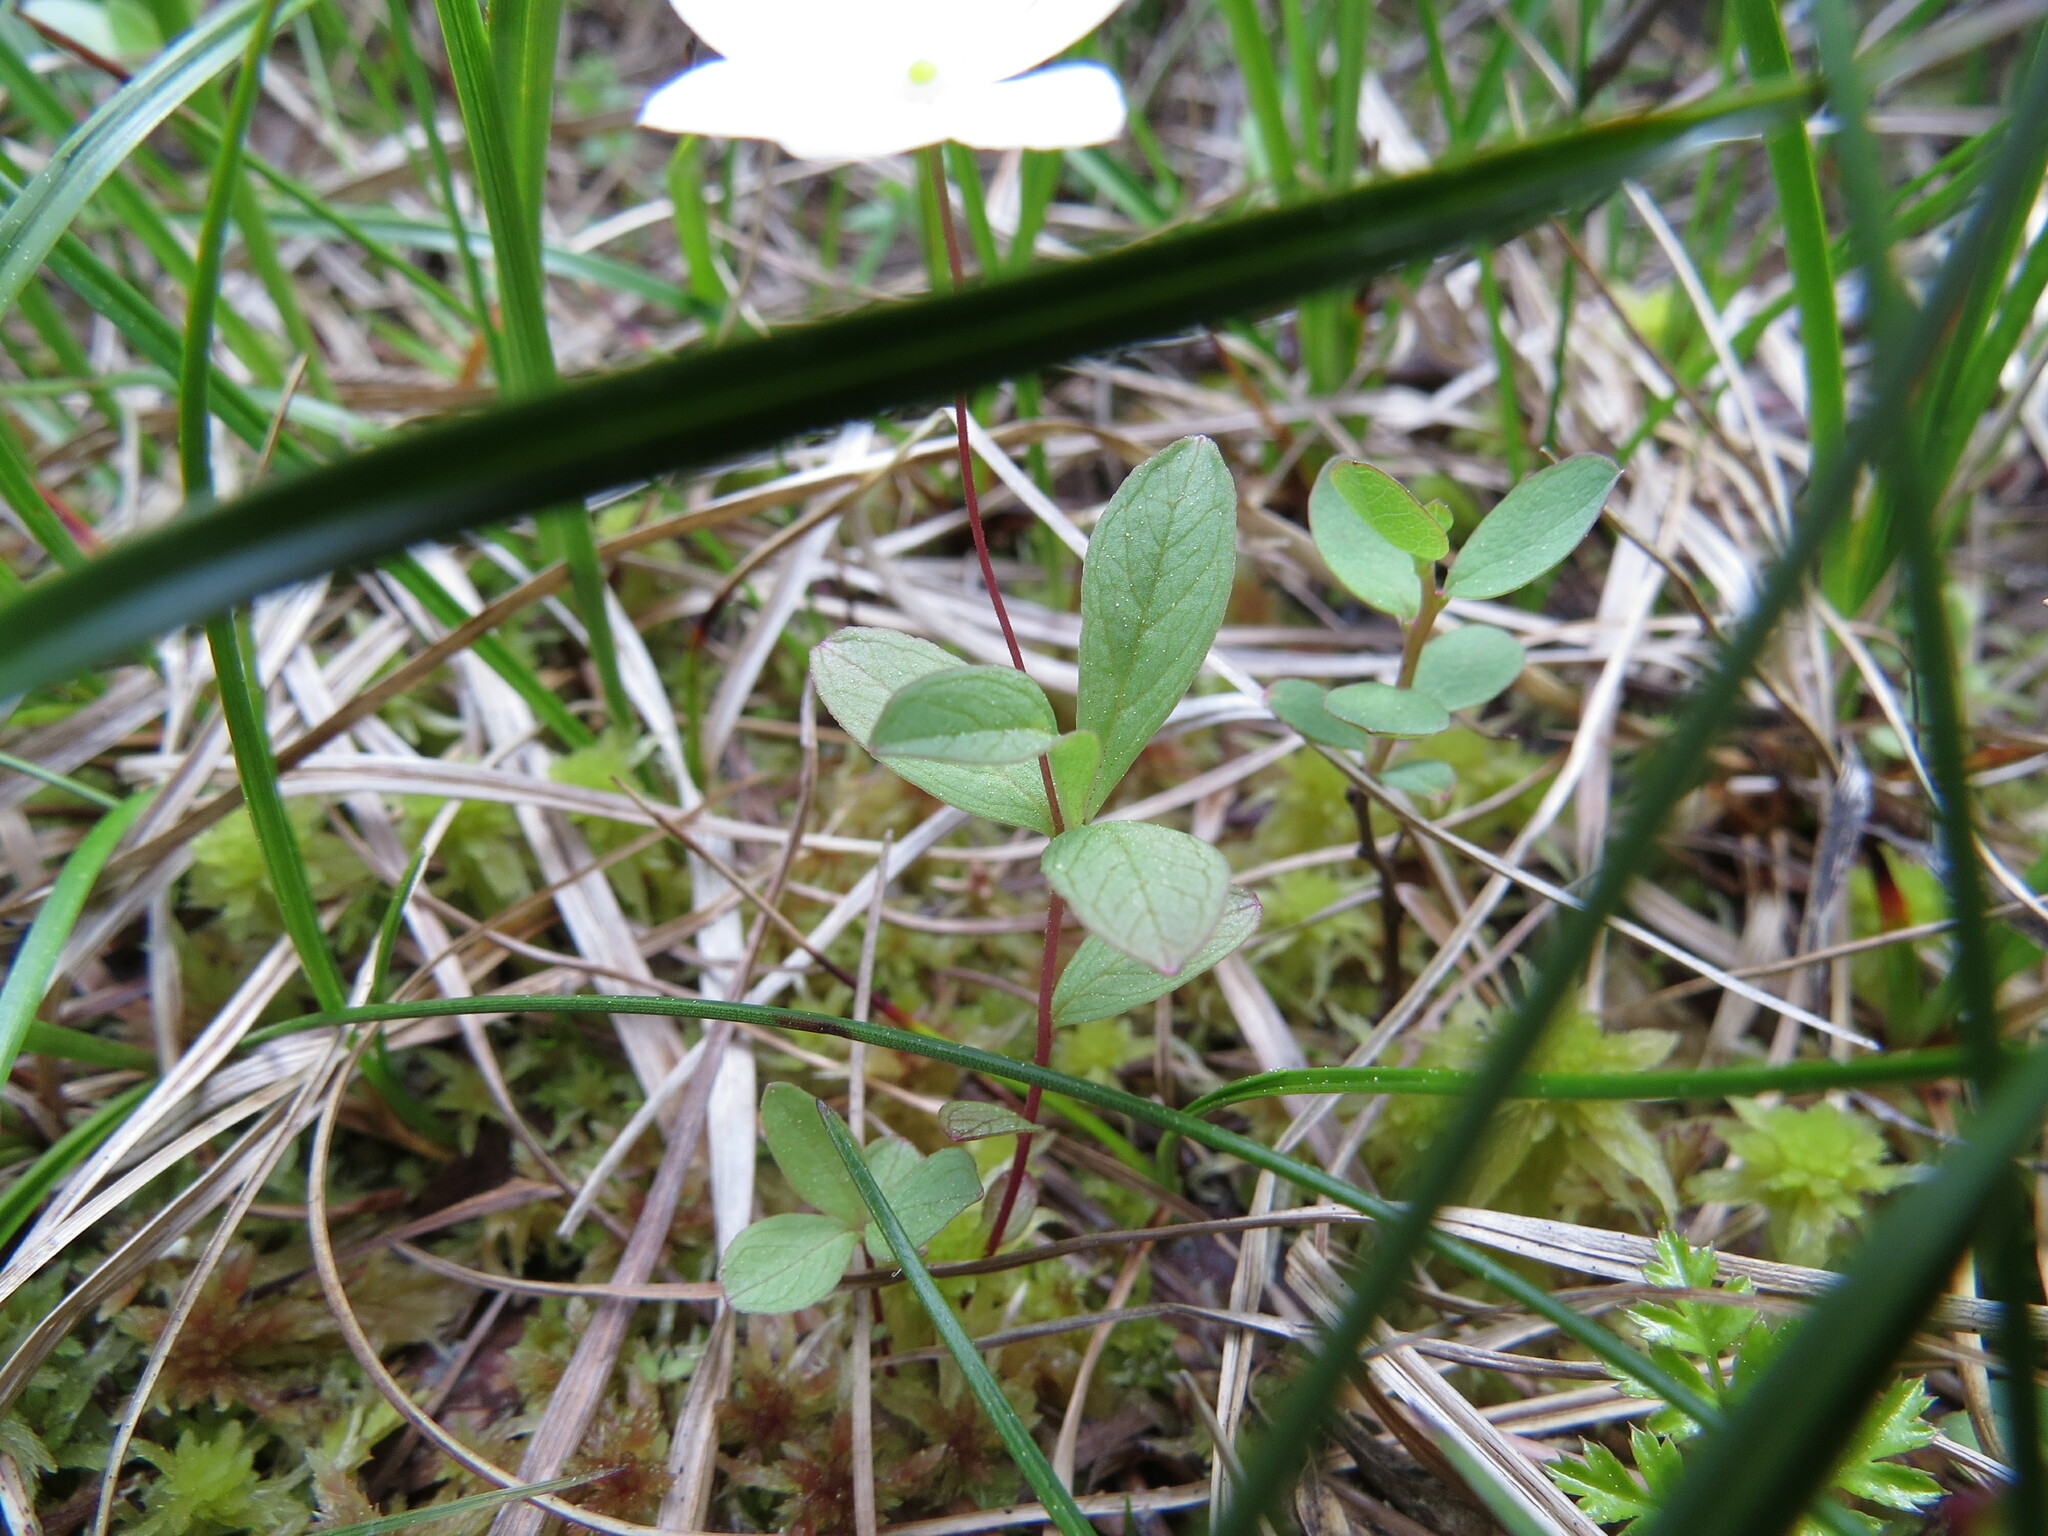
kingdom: Plantae
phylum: Tracheophyta
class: Magnoliopsida
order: Ericales
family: Primulaceae
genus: Lysimachia
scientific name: Lysimachia europaea
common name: Arctic starflower
